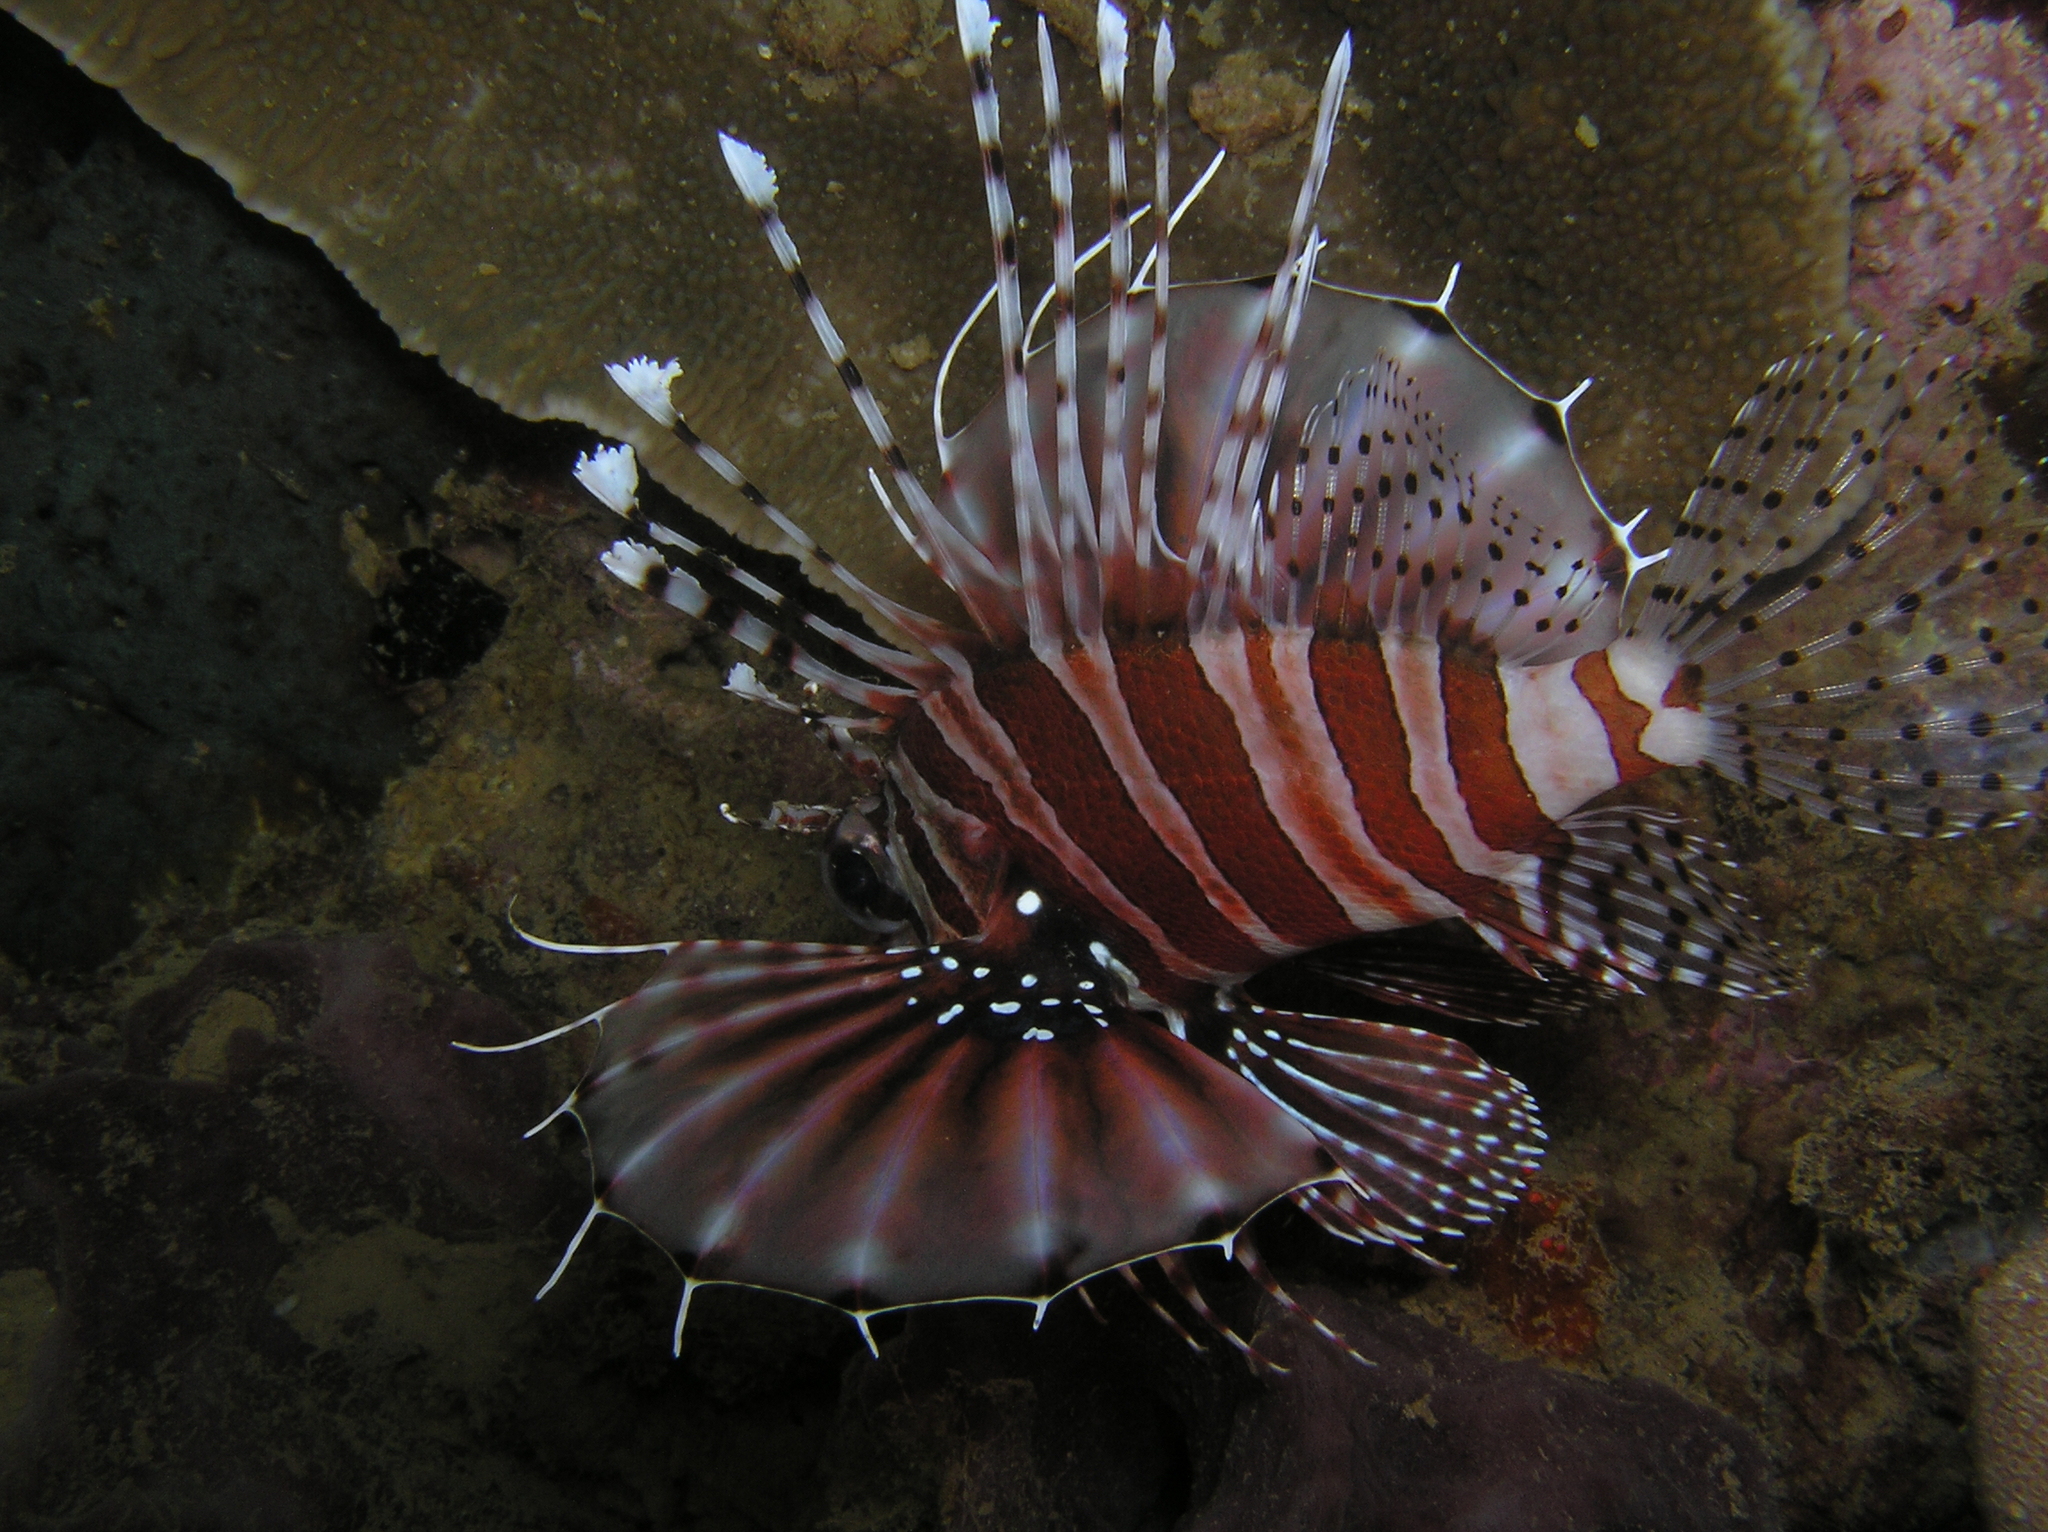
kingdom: Animalia
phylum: Chordata
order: Scorpaeniformes
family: Scorpaenidae
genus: Dendrochirus
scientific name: Dendrochirus zebra
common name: Zebra lionfish
